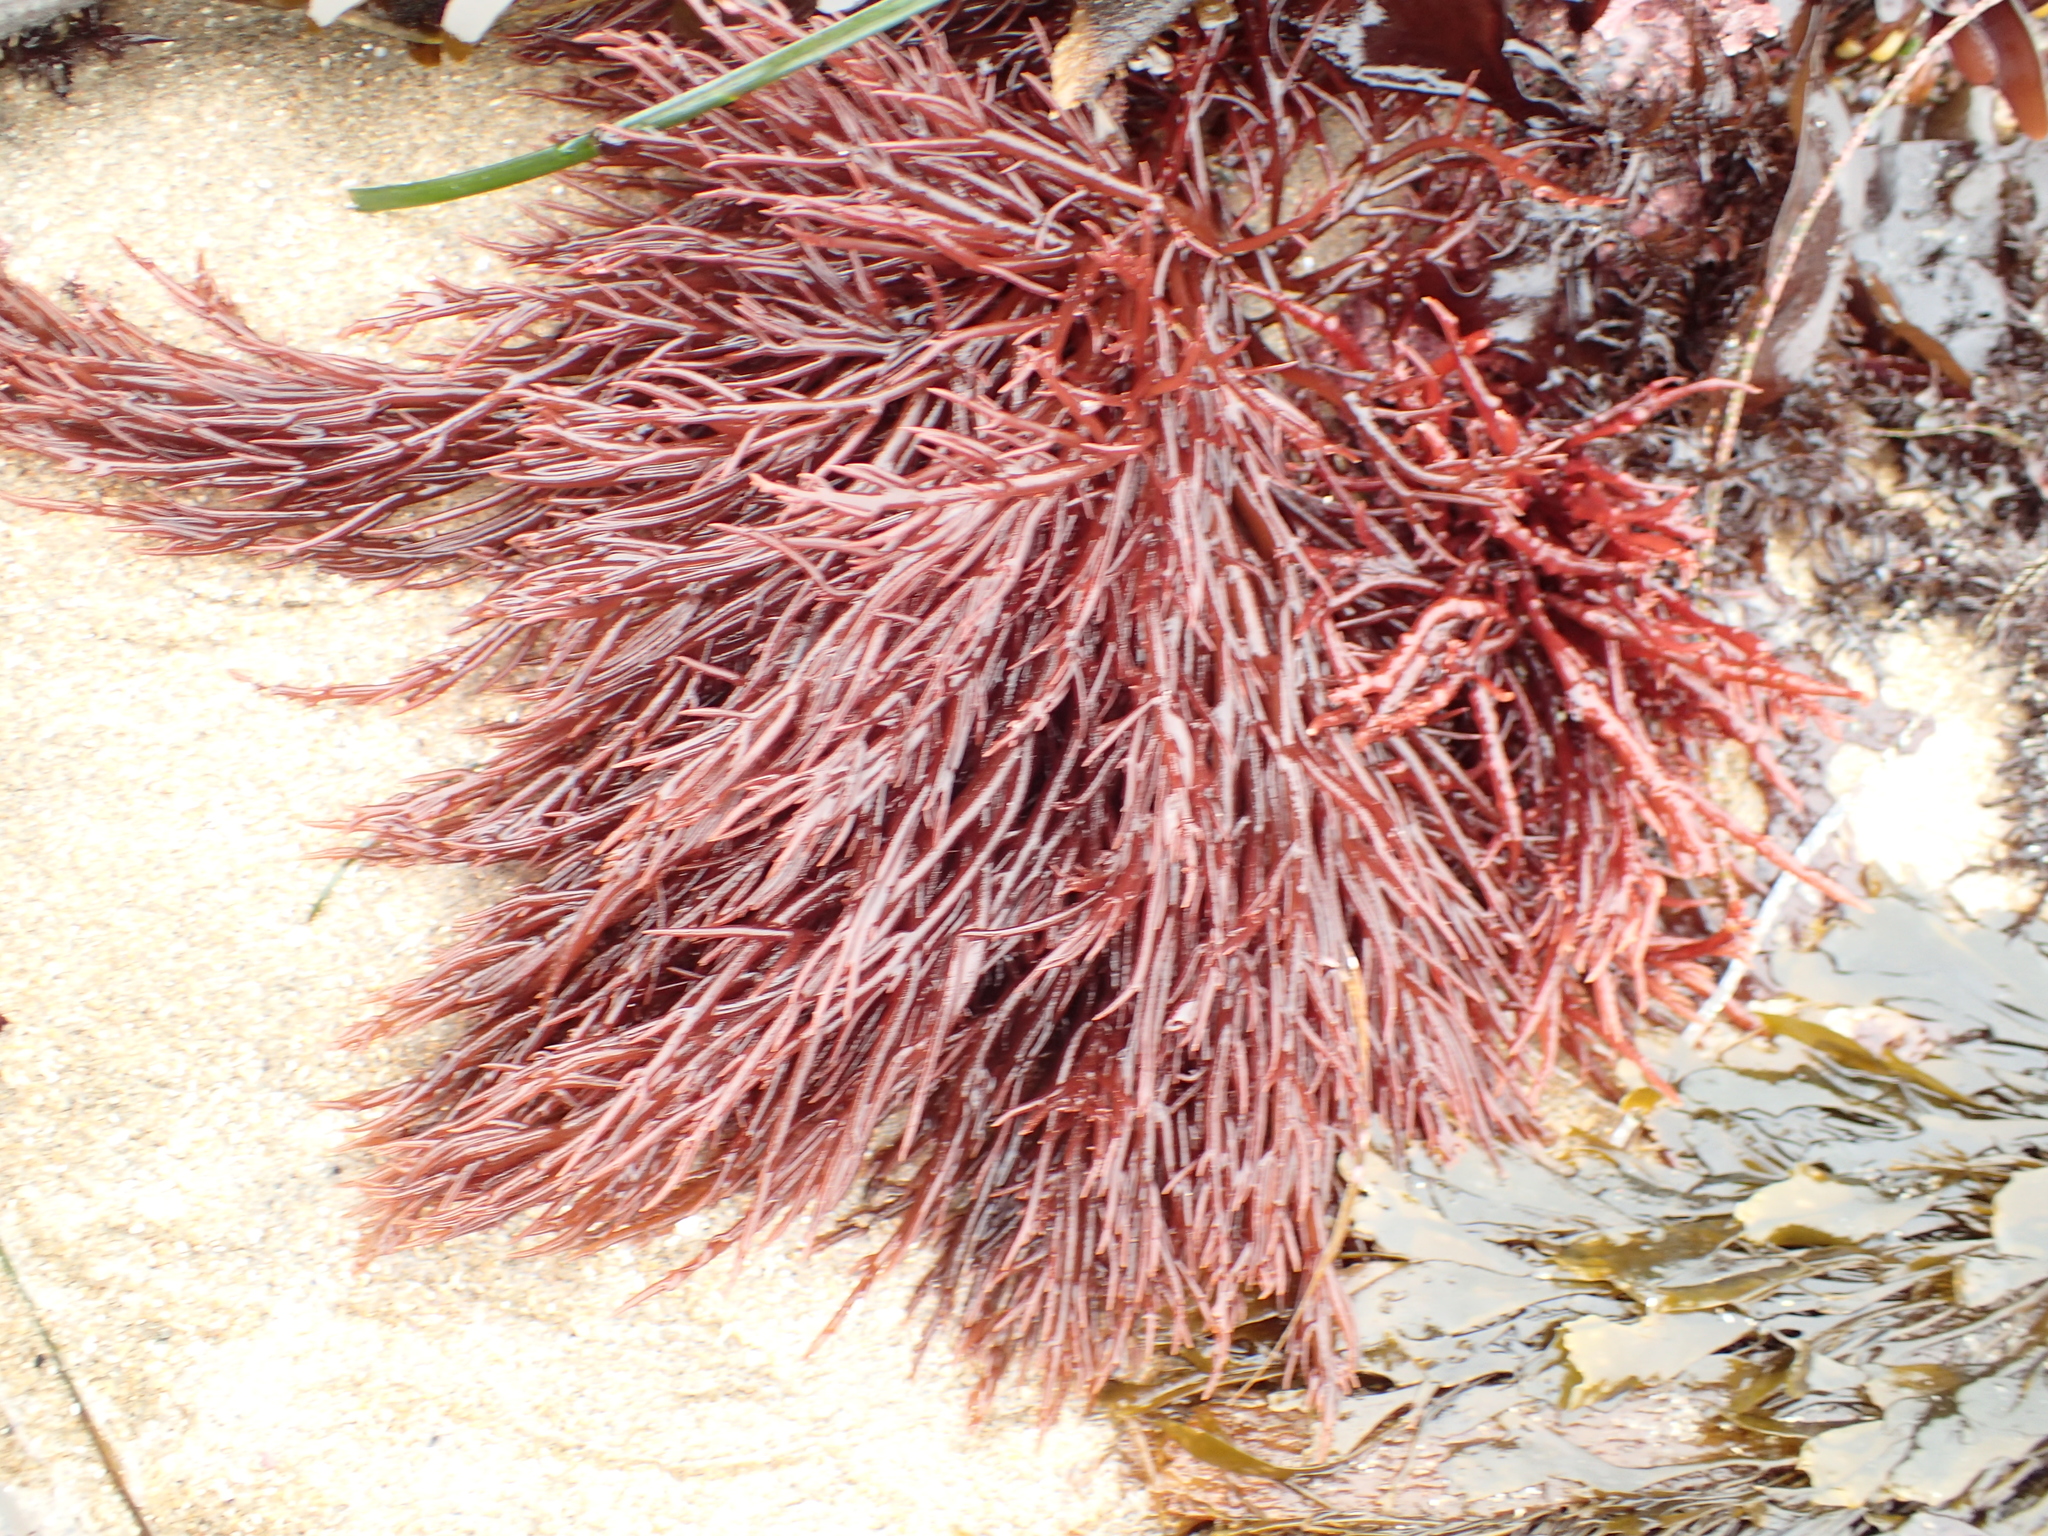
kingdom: Plantae
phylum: Rhodophyta
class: Florideophyceae
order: Gigartinales
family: Solieriaceae
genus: Sarcodiotheca
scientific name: Sarcodiotheca gaudichaudii
